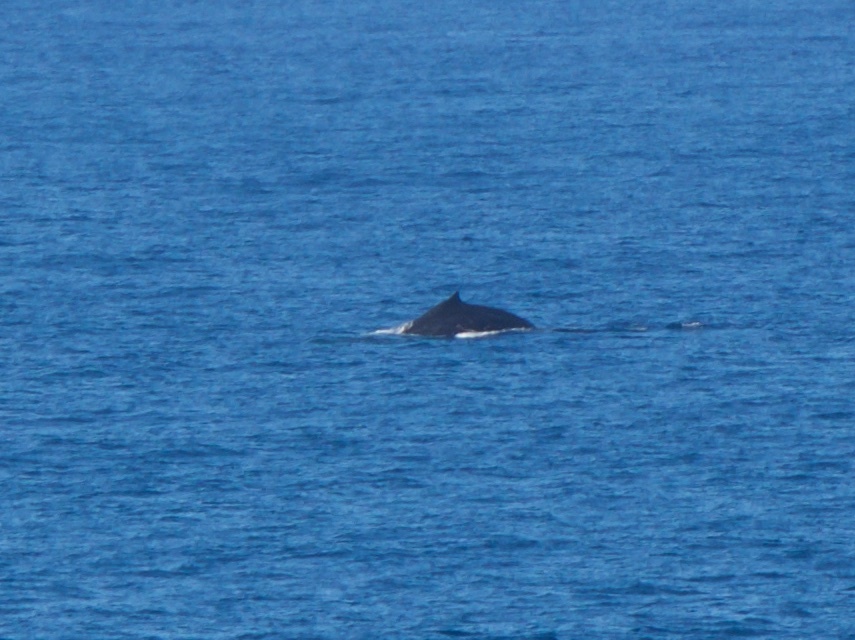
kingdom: Animalia
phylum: Chordata
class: Mammalia
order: Cetacea
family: Balaenopteridae
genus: Megaptera
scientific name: Megaptera novaeangliae
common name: Humpback whale
